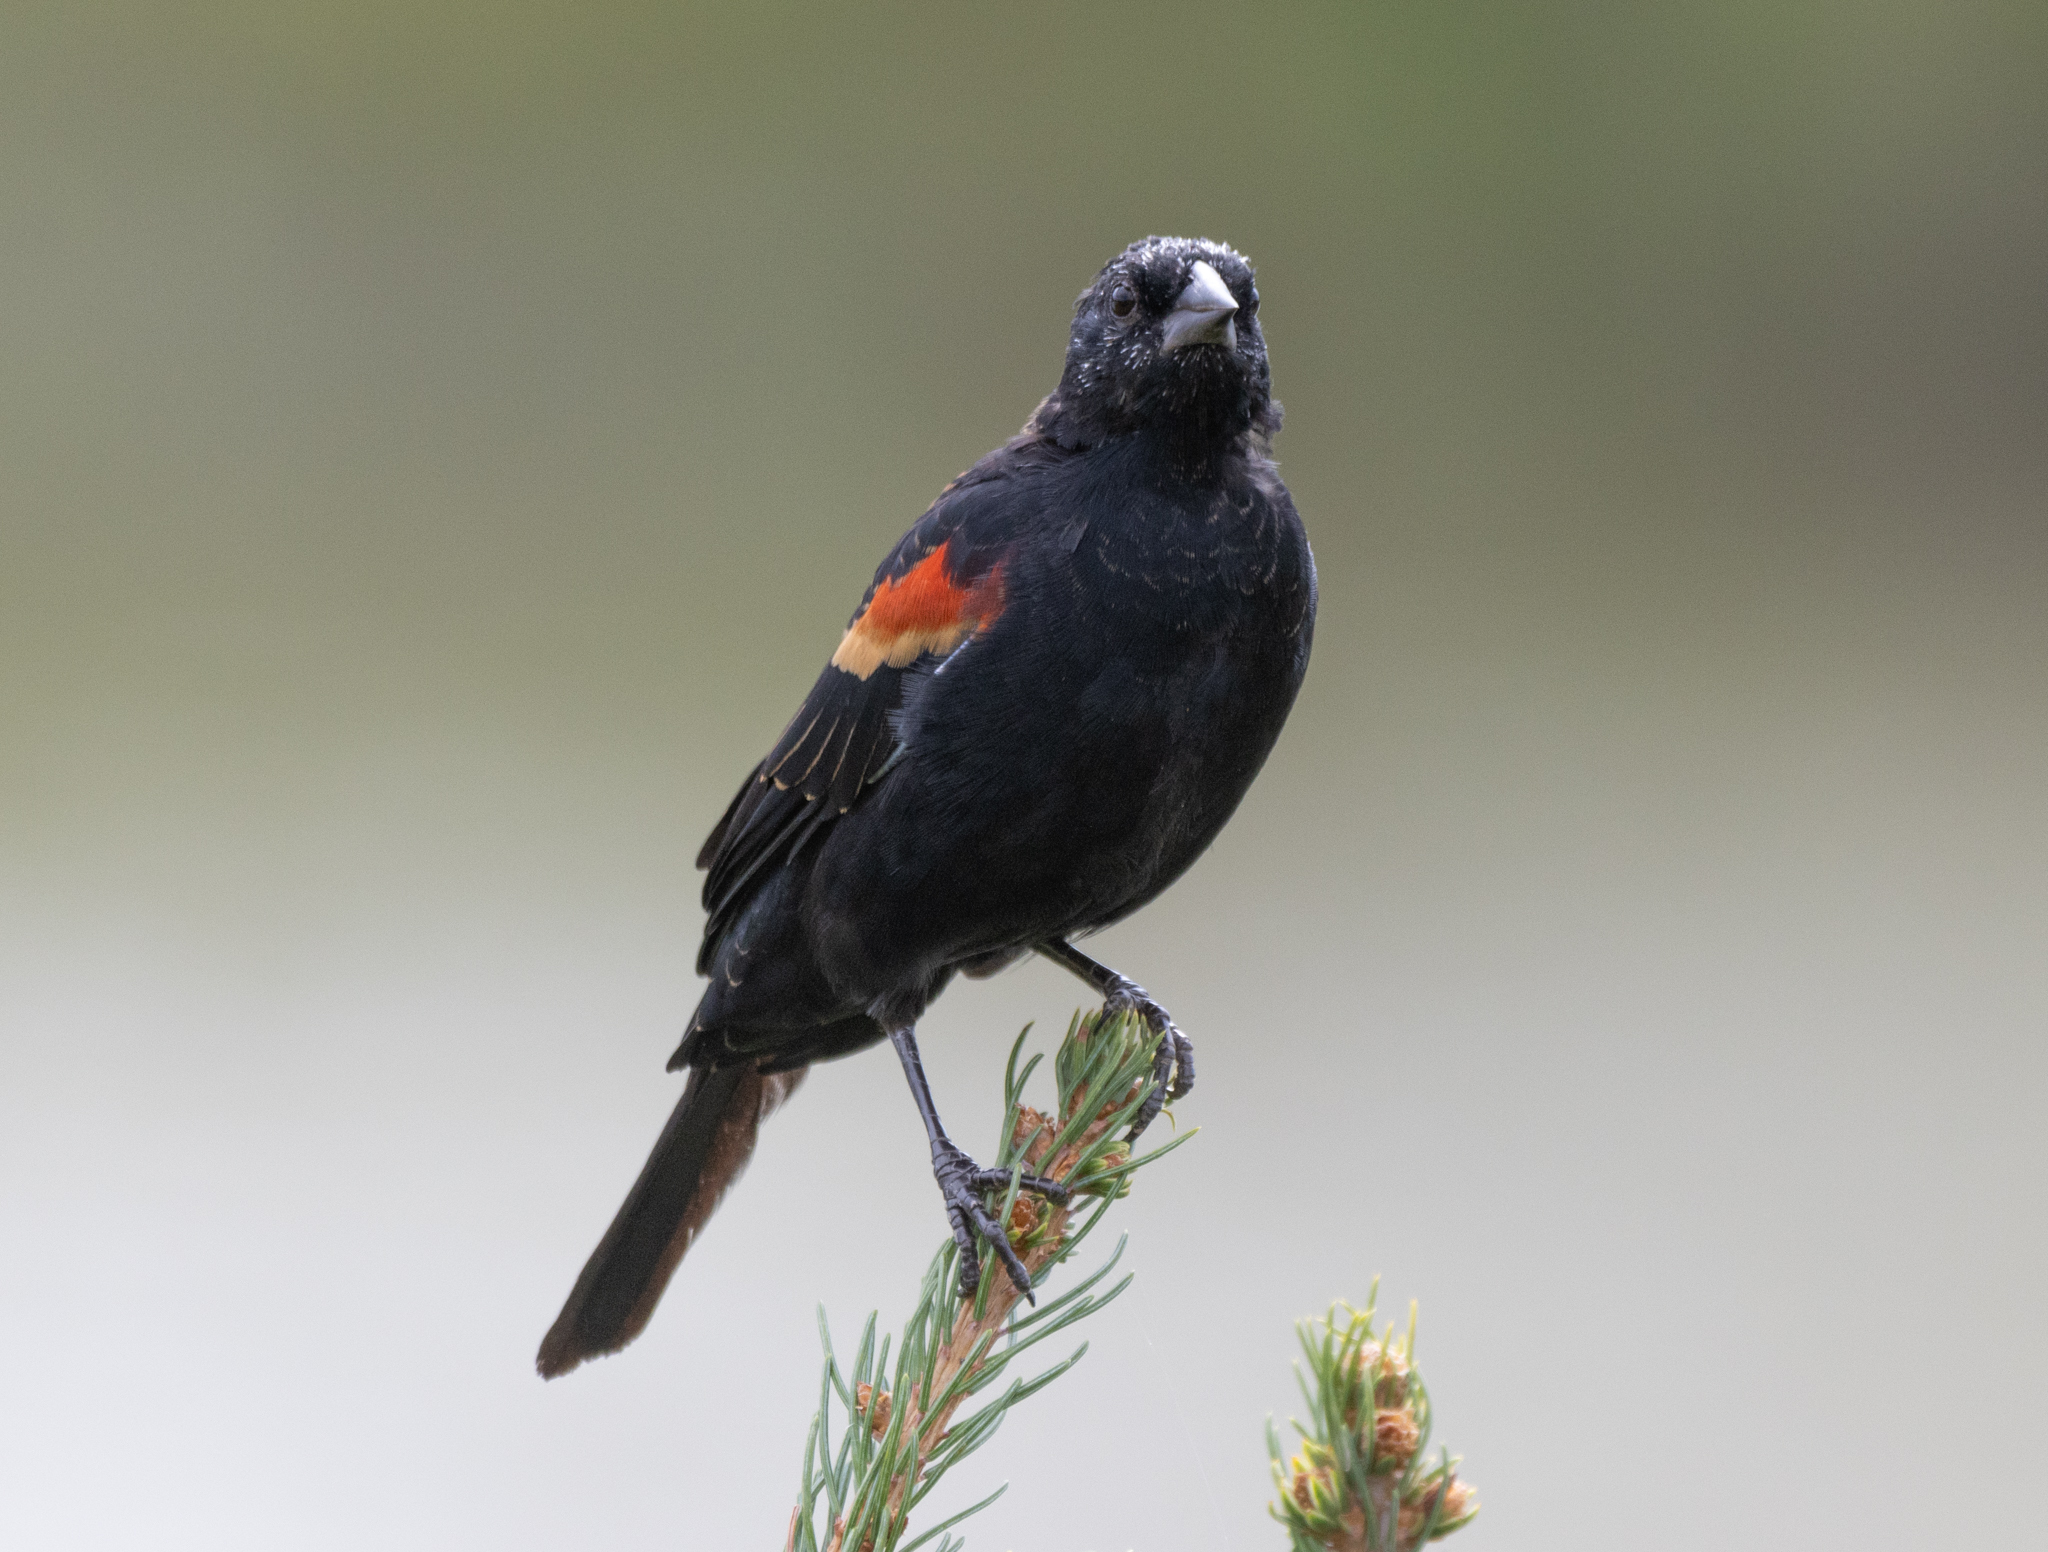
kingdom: Animalia
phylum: Chordata
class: Aves
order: Passeriformes
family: Icteridae
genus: Agelaius
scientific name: Agelaius phoeniceus
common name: Red-winged blackbird
